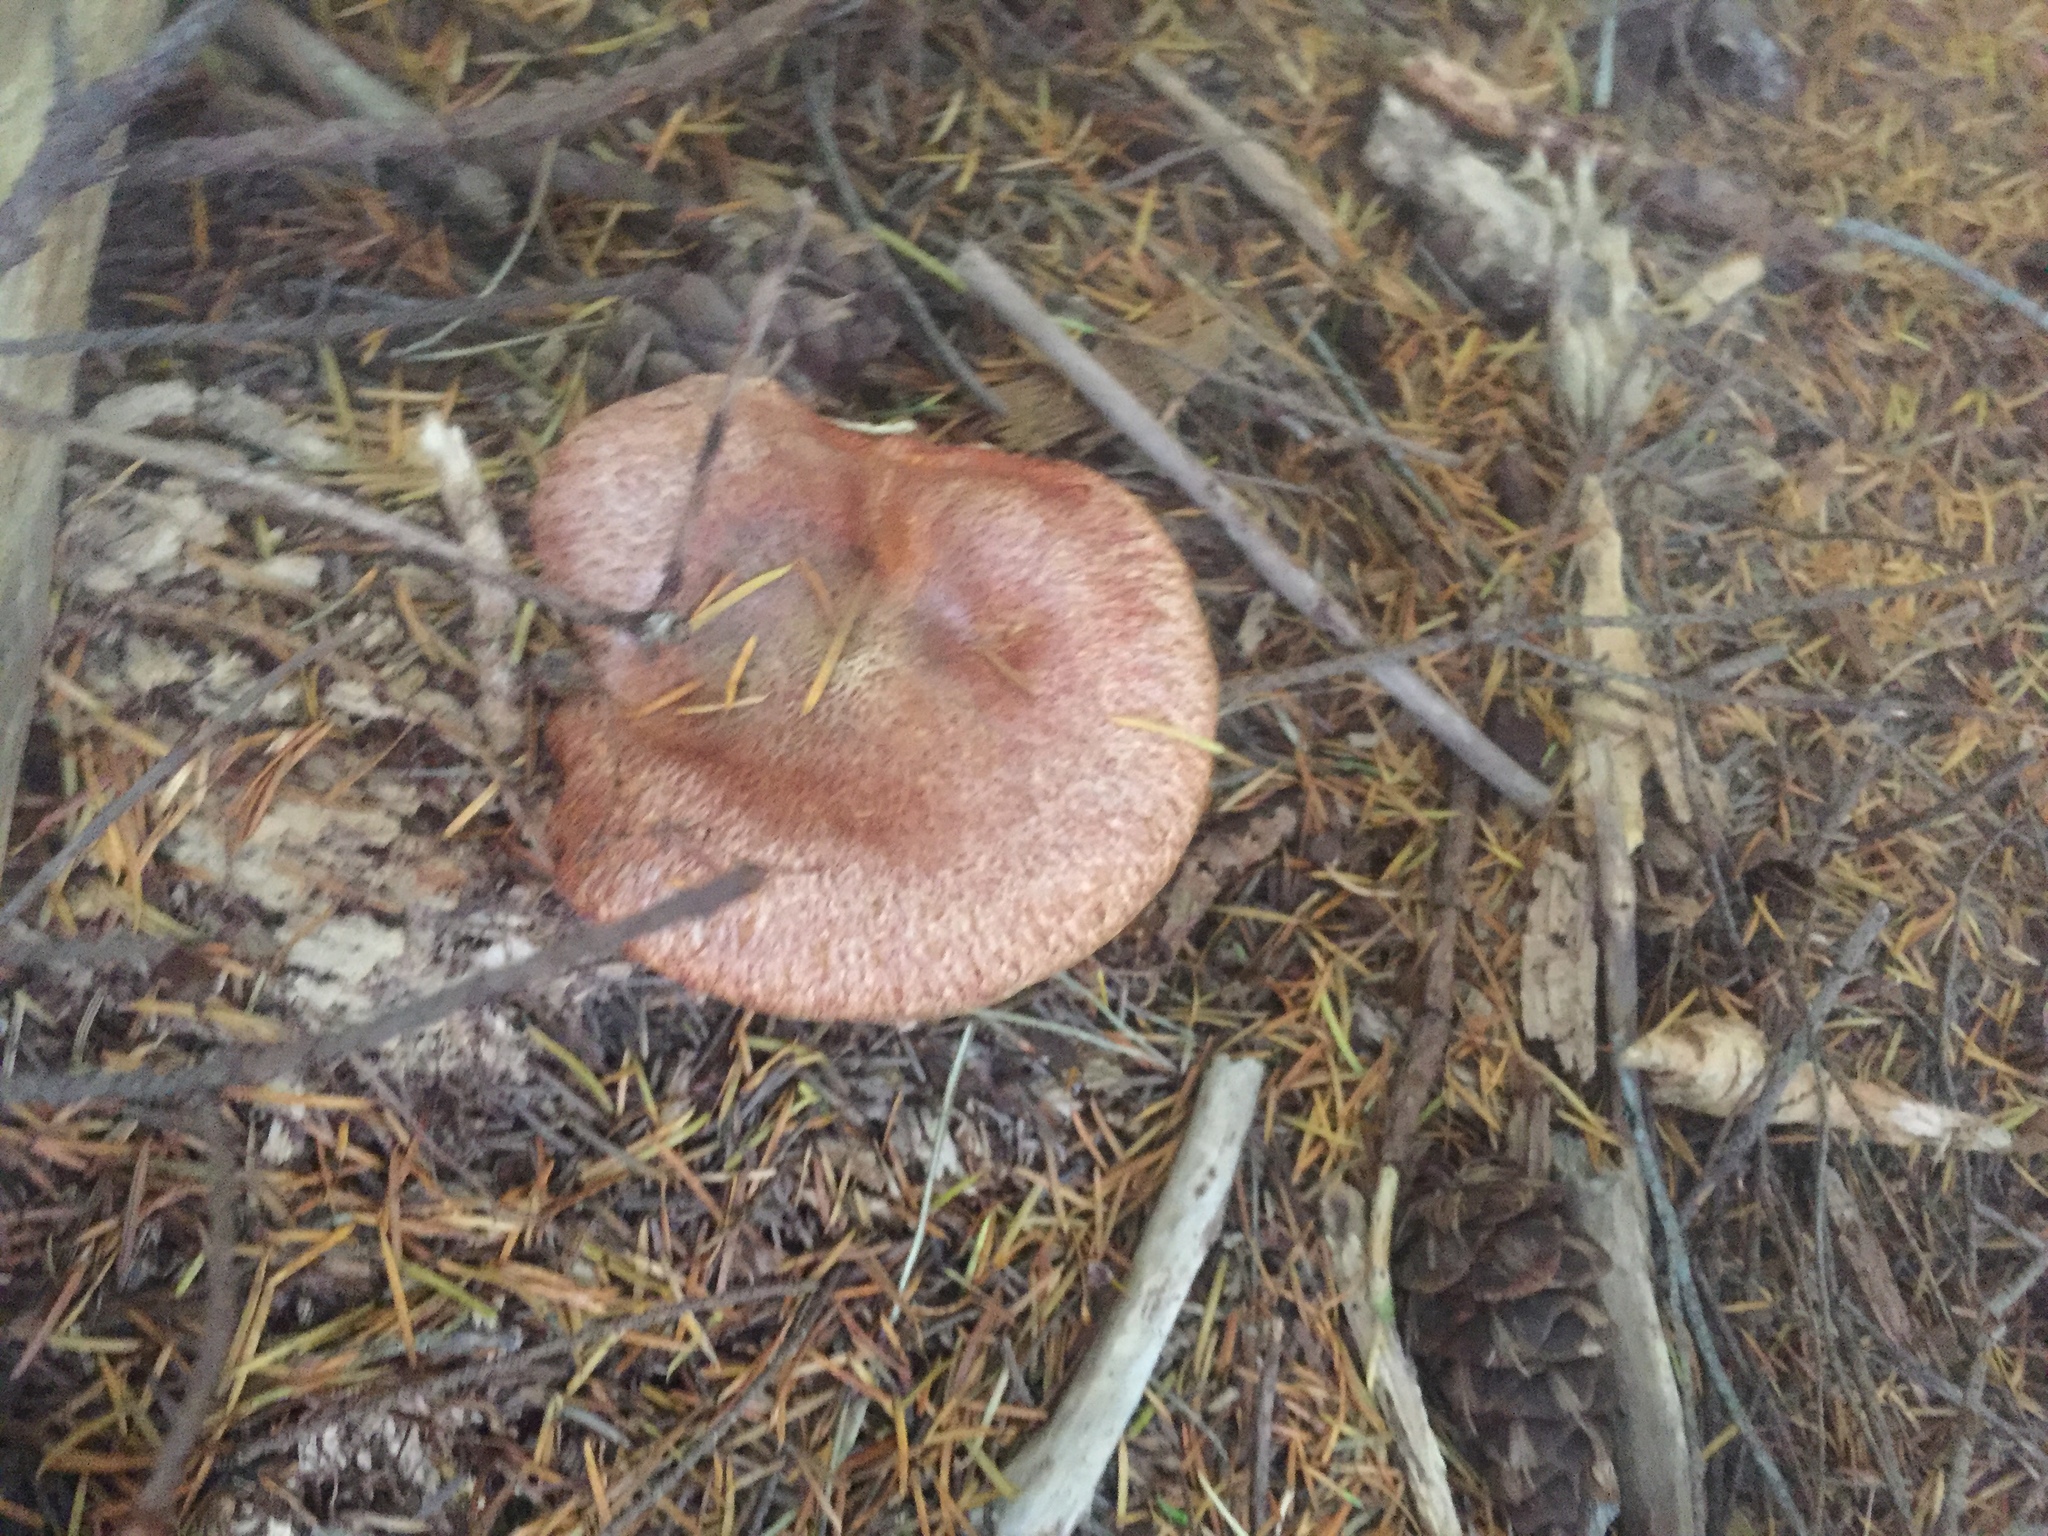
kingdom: Fungi
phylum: Basidiomycota
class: Agaricomycetes
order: Boletales
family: Suillaceae
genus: Suillus
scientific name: Suillus lakei
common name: Western painted suillus
